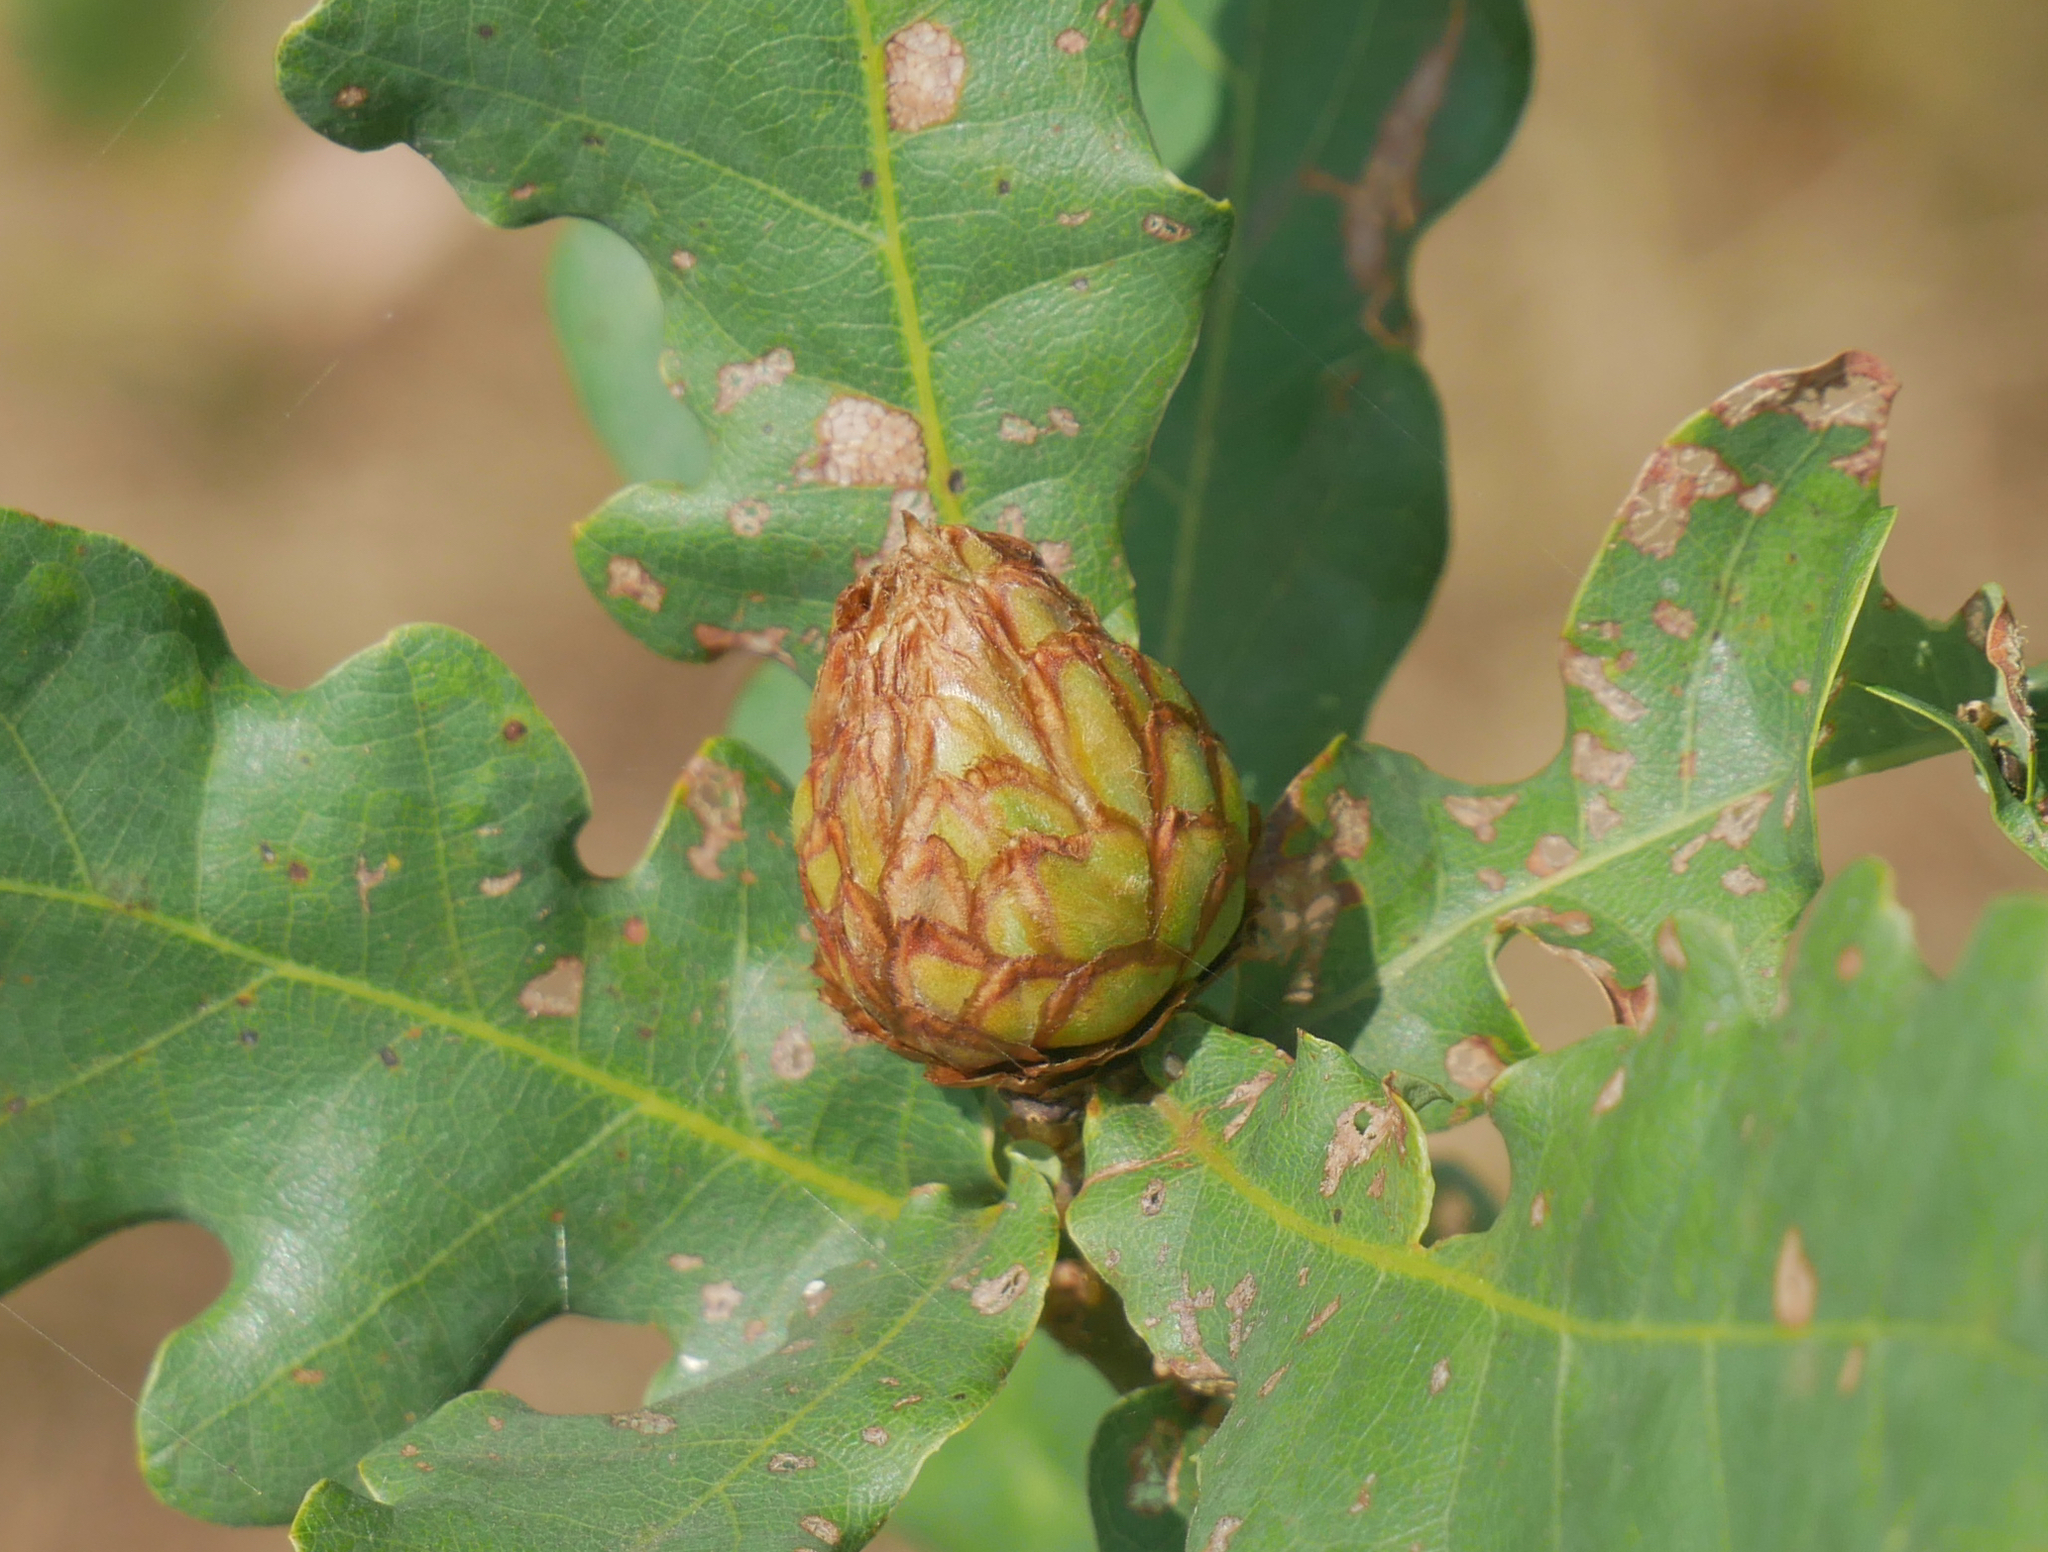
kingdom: Animalia
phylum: Arthropoda
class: Insecta
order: Hymenoptera
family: Cynipidae
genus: Andricus
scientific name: Andricus foecundatrix
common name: Artichoke gall
